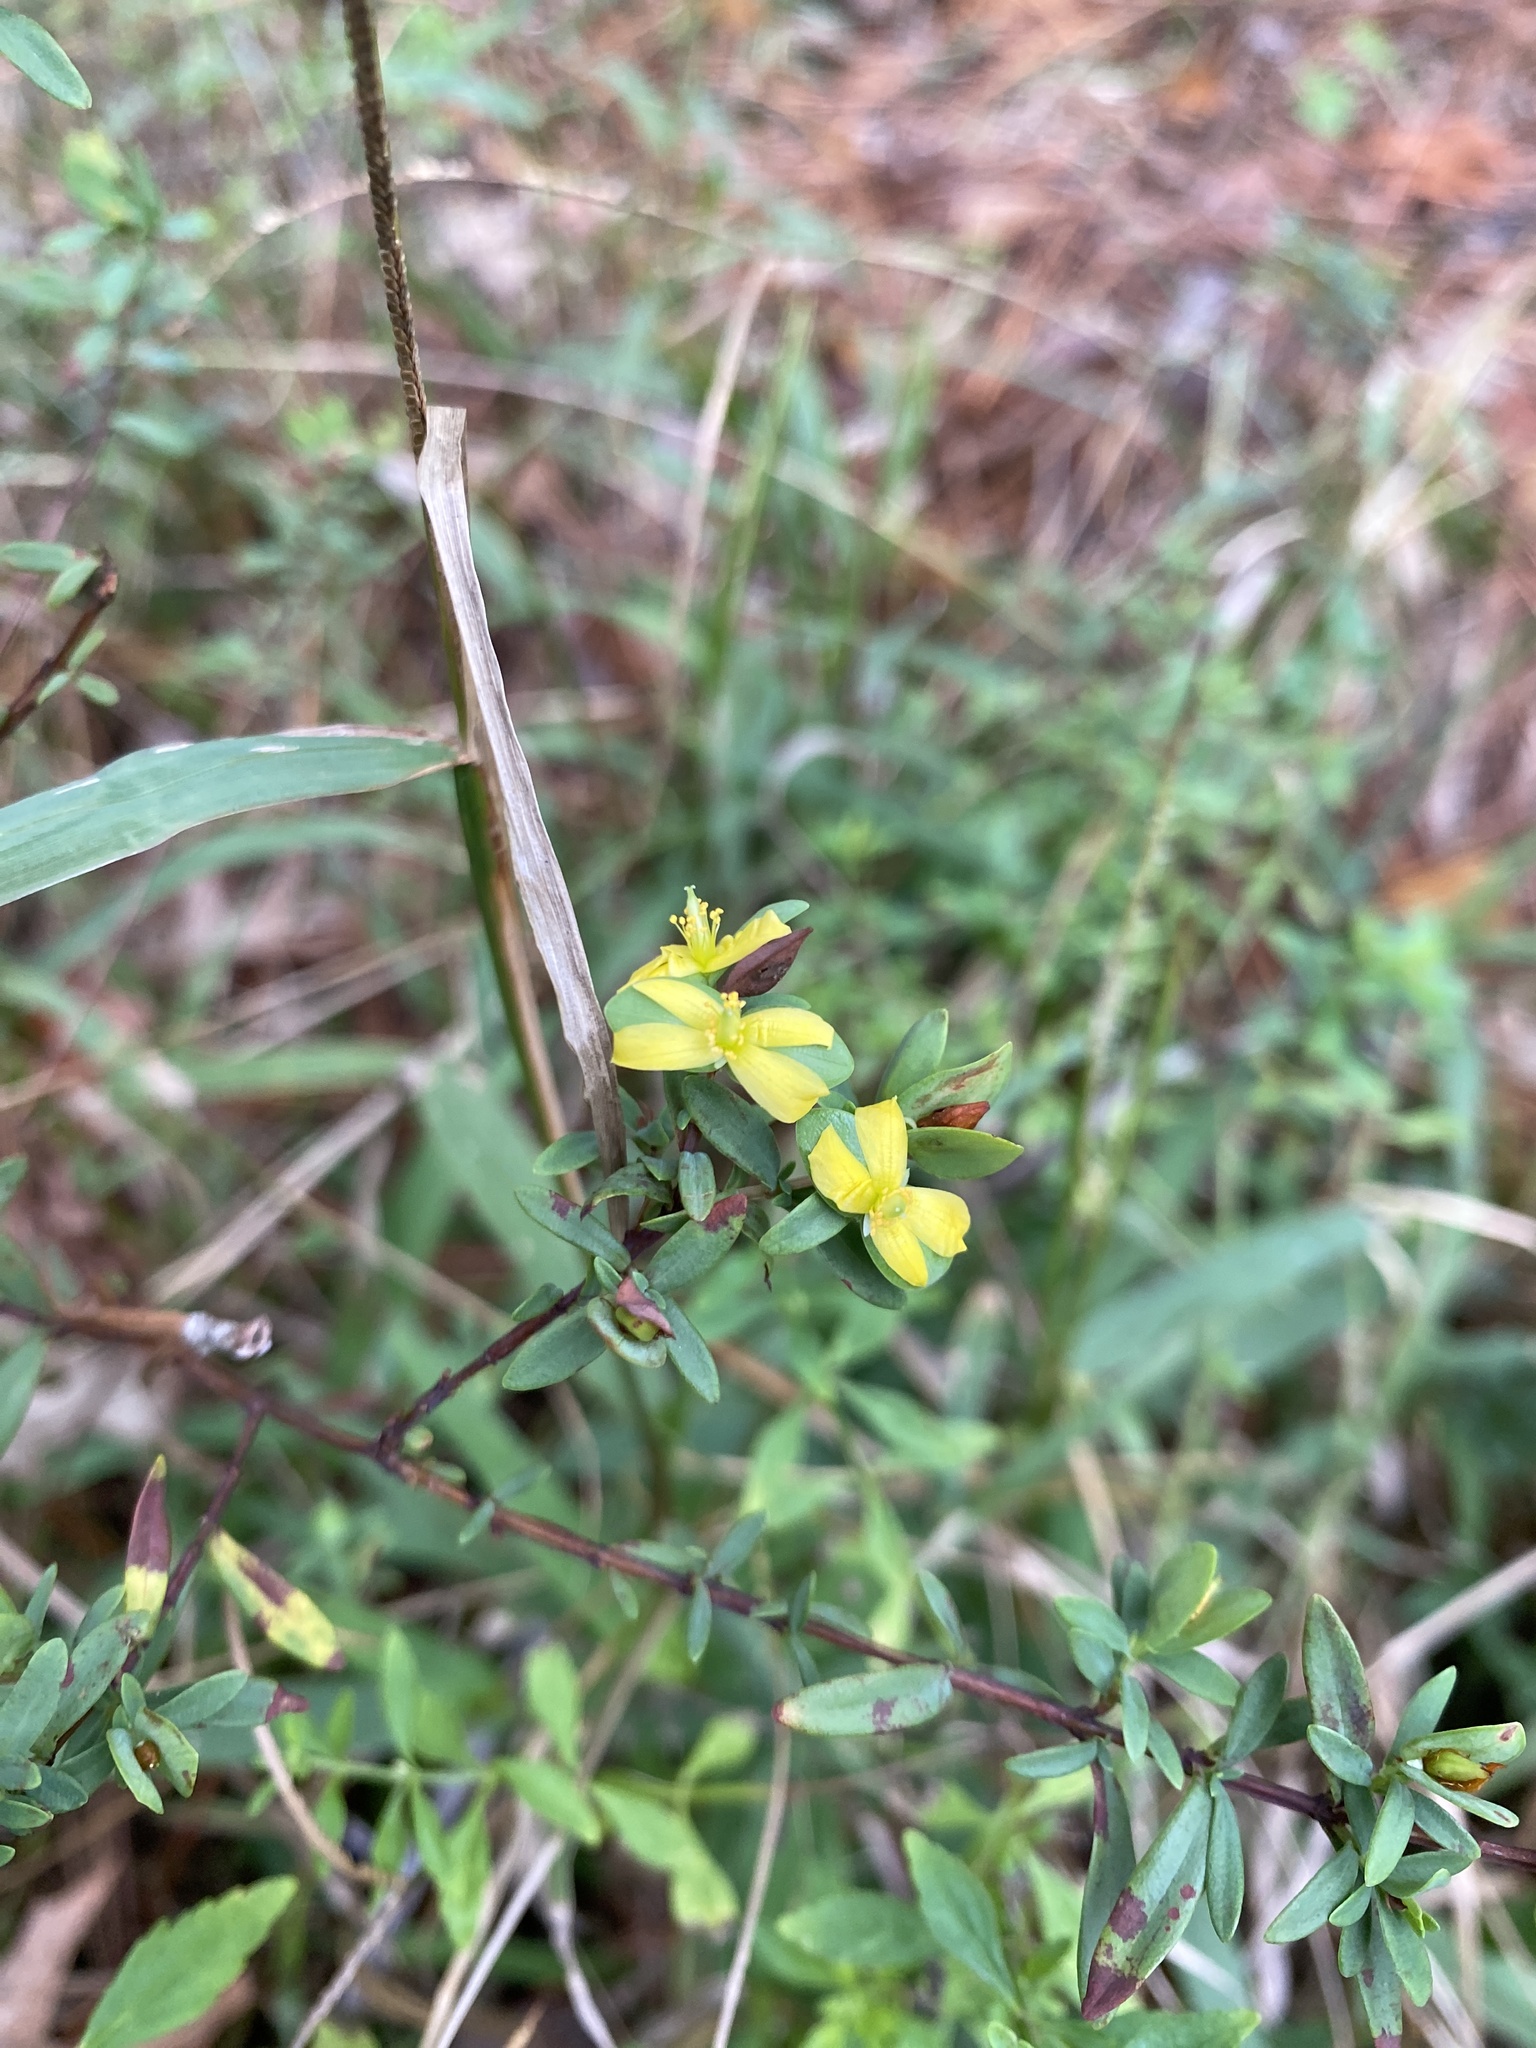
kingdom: Plantae
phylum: Tracheophyta
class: Magnoliopsida
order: Malpighiales
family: Hypericaceae
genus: Hypericum
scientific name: Hypericum hypericoides
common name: St. andrew's cross
